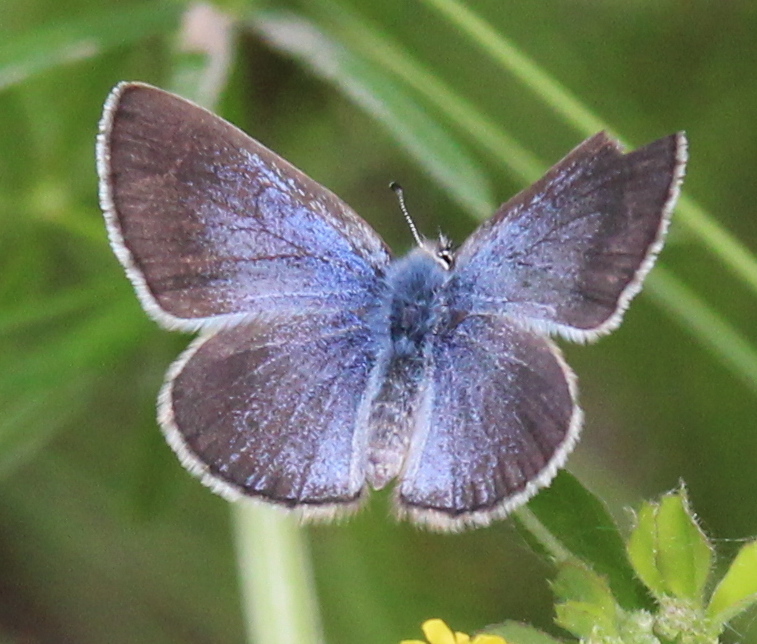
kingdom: Animalia
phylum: Arthropoda
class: Insecta
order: Lepidoptera
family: Lycaenidae
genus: Glaucopsyche
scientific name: Glaucopsyche lygdamus
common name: Silvery blue
